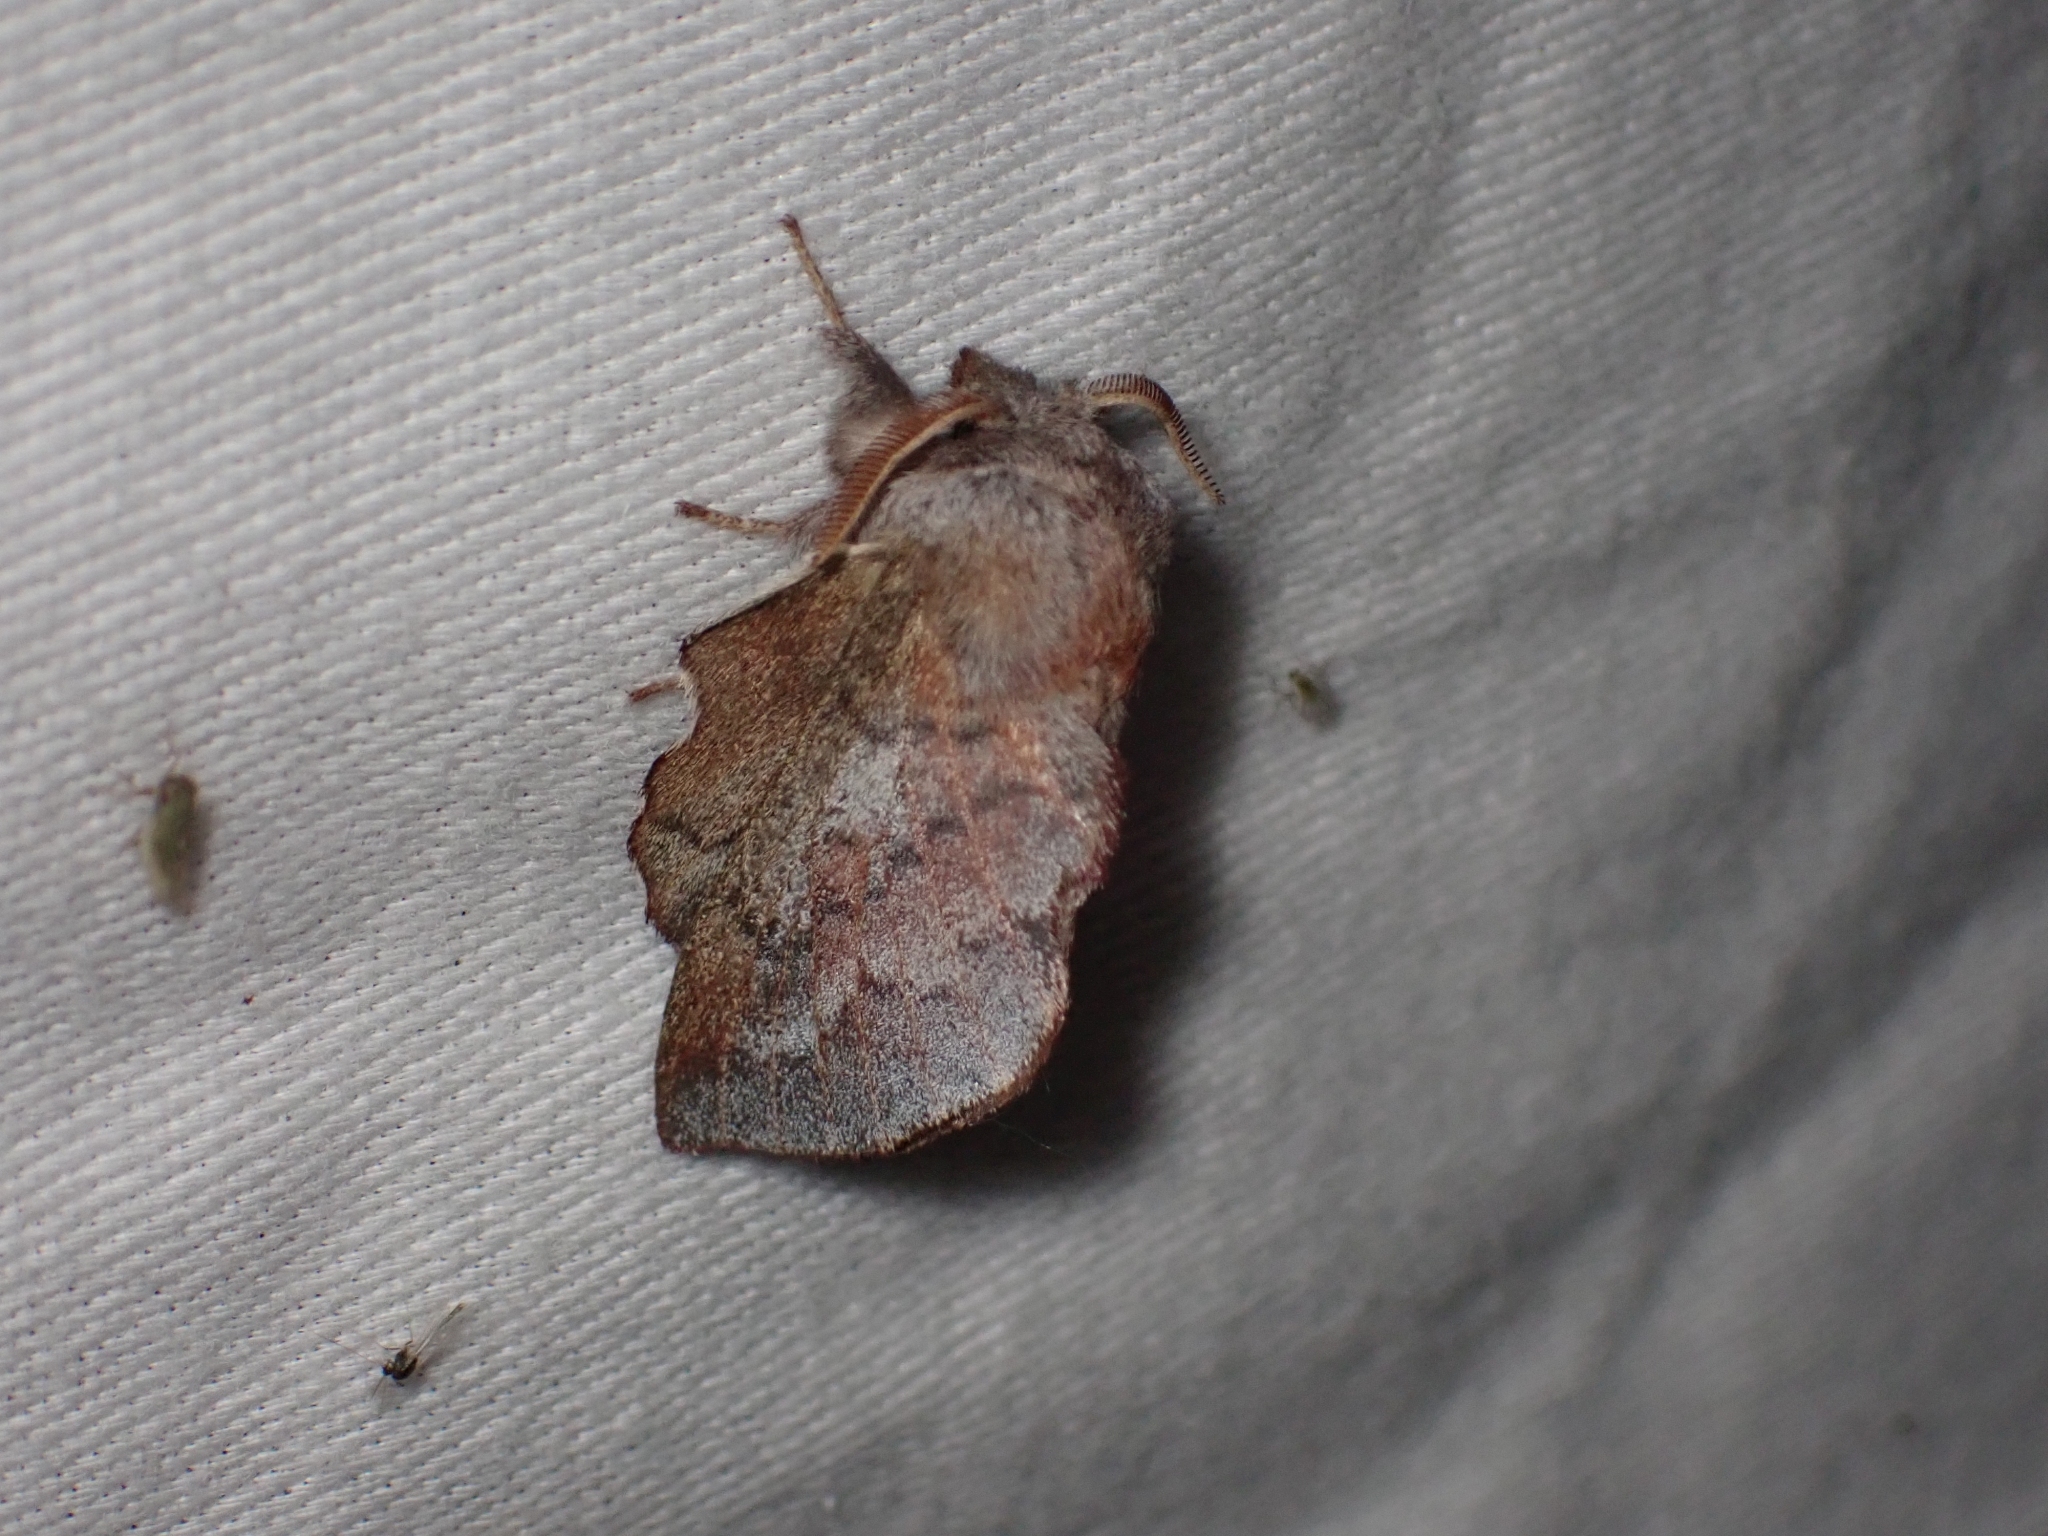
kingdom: Animalia
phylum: Arthropoda
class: Insecta
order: Lepidoptera
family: Lasiocampidae
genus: Phyllodesma
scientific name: Phyllodesma americana
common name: American lappet moth
